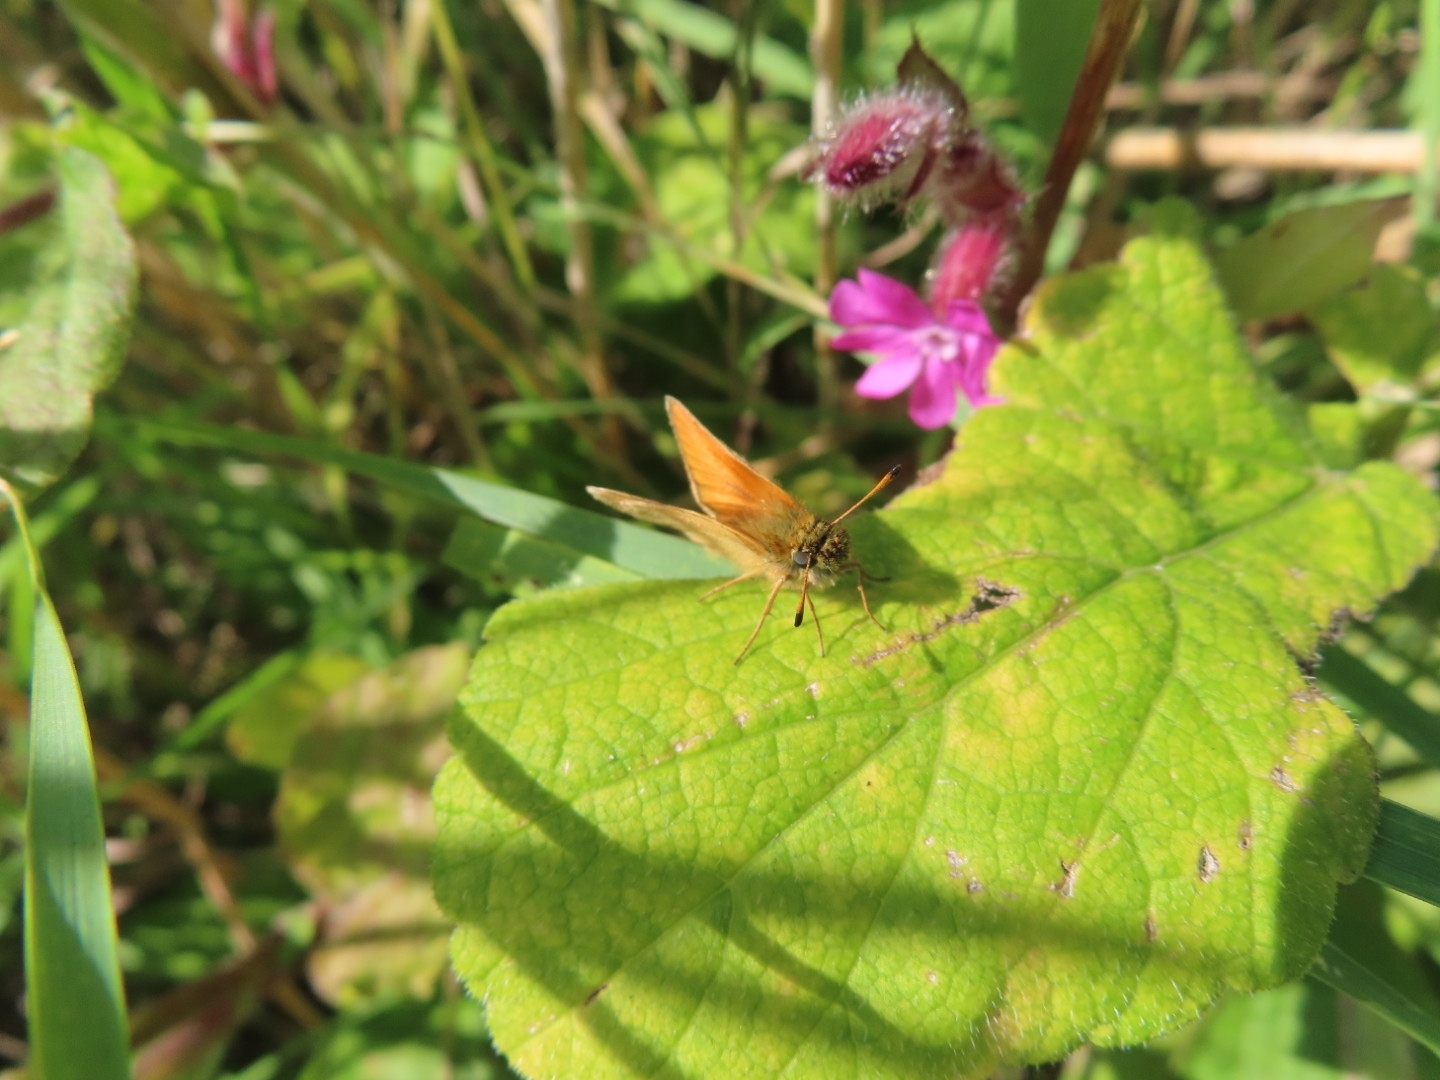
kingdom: Animalia
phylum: Arthropoda
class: Insecta
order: Lepidoptera
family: Hesperiidae
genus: Thymelicus
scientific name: Thymelicus lineola
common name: Essex skipper
